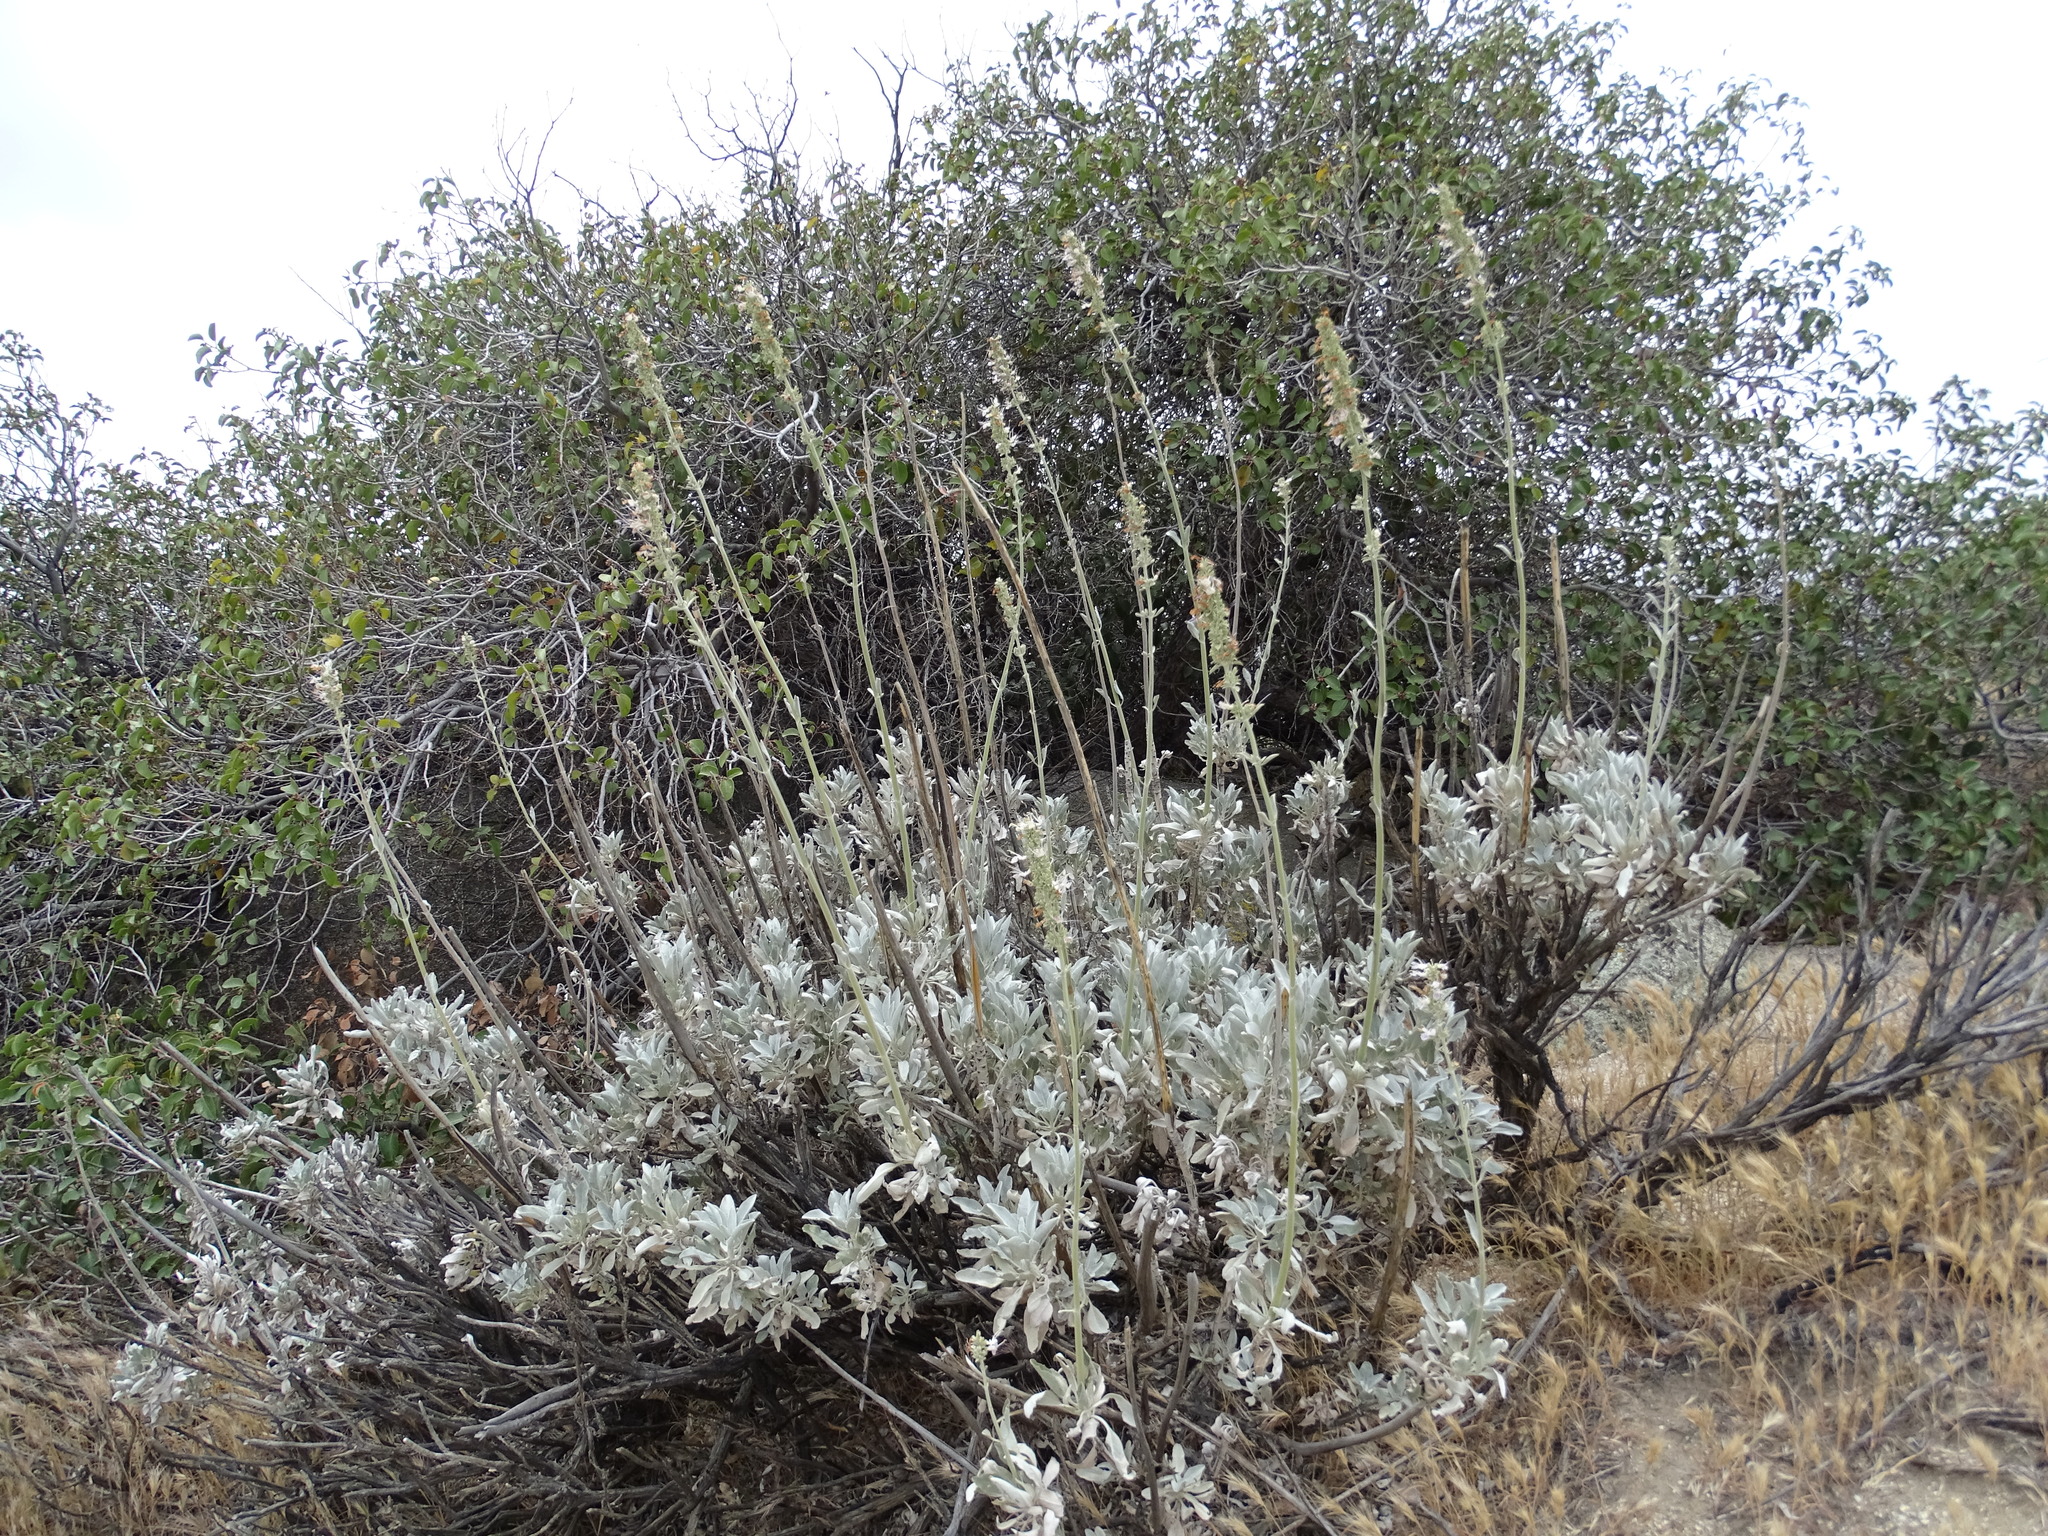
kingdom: Plantae
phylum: Tracheophyta
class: Magnoliopsida
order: Lamiales
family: Lamiaceae
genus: Salvia
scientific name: Salvia apiana
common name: White sage
